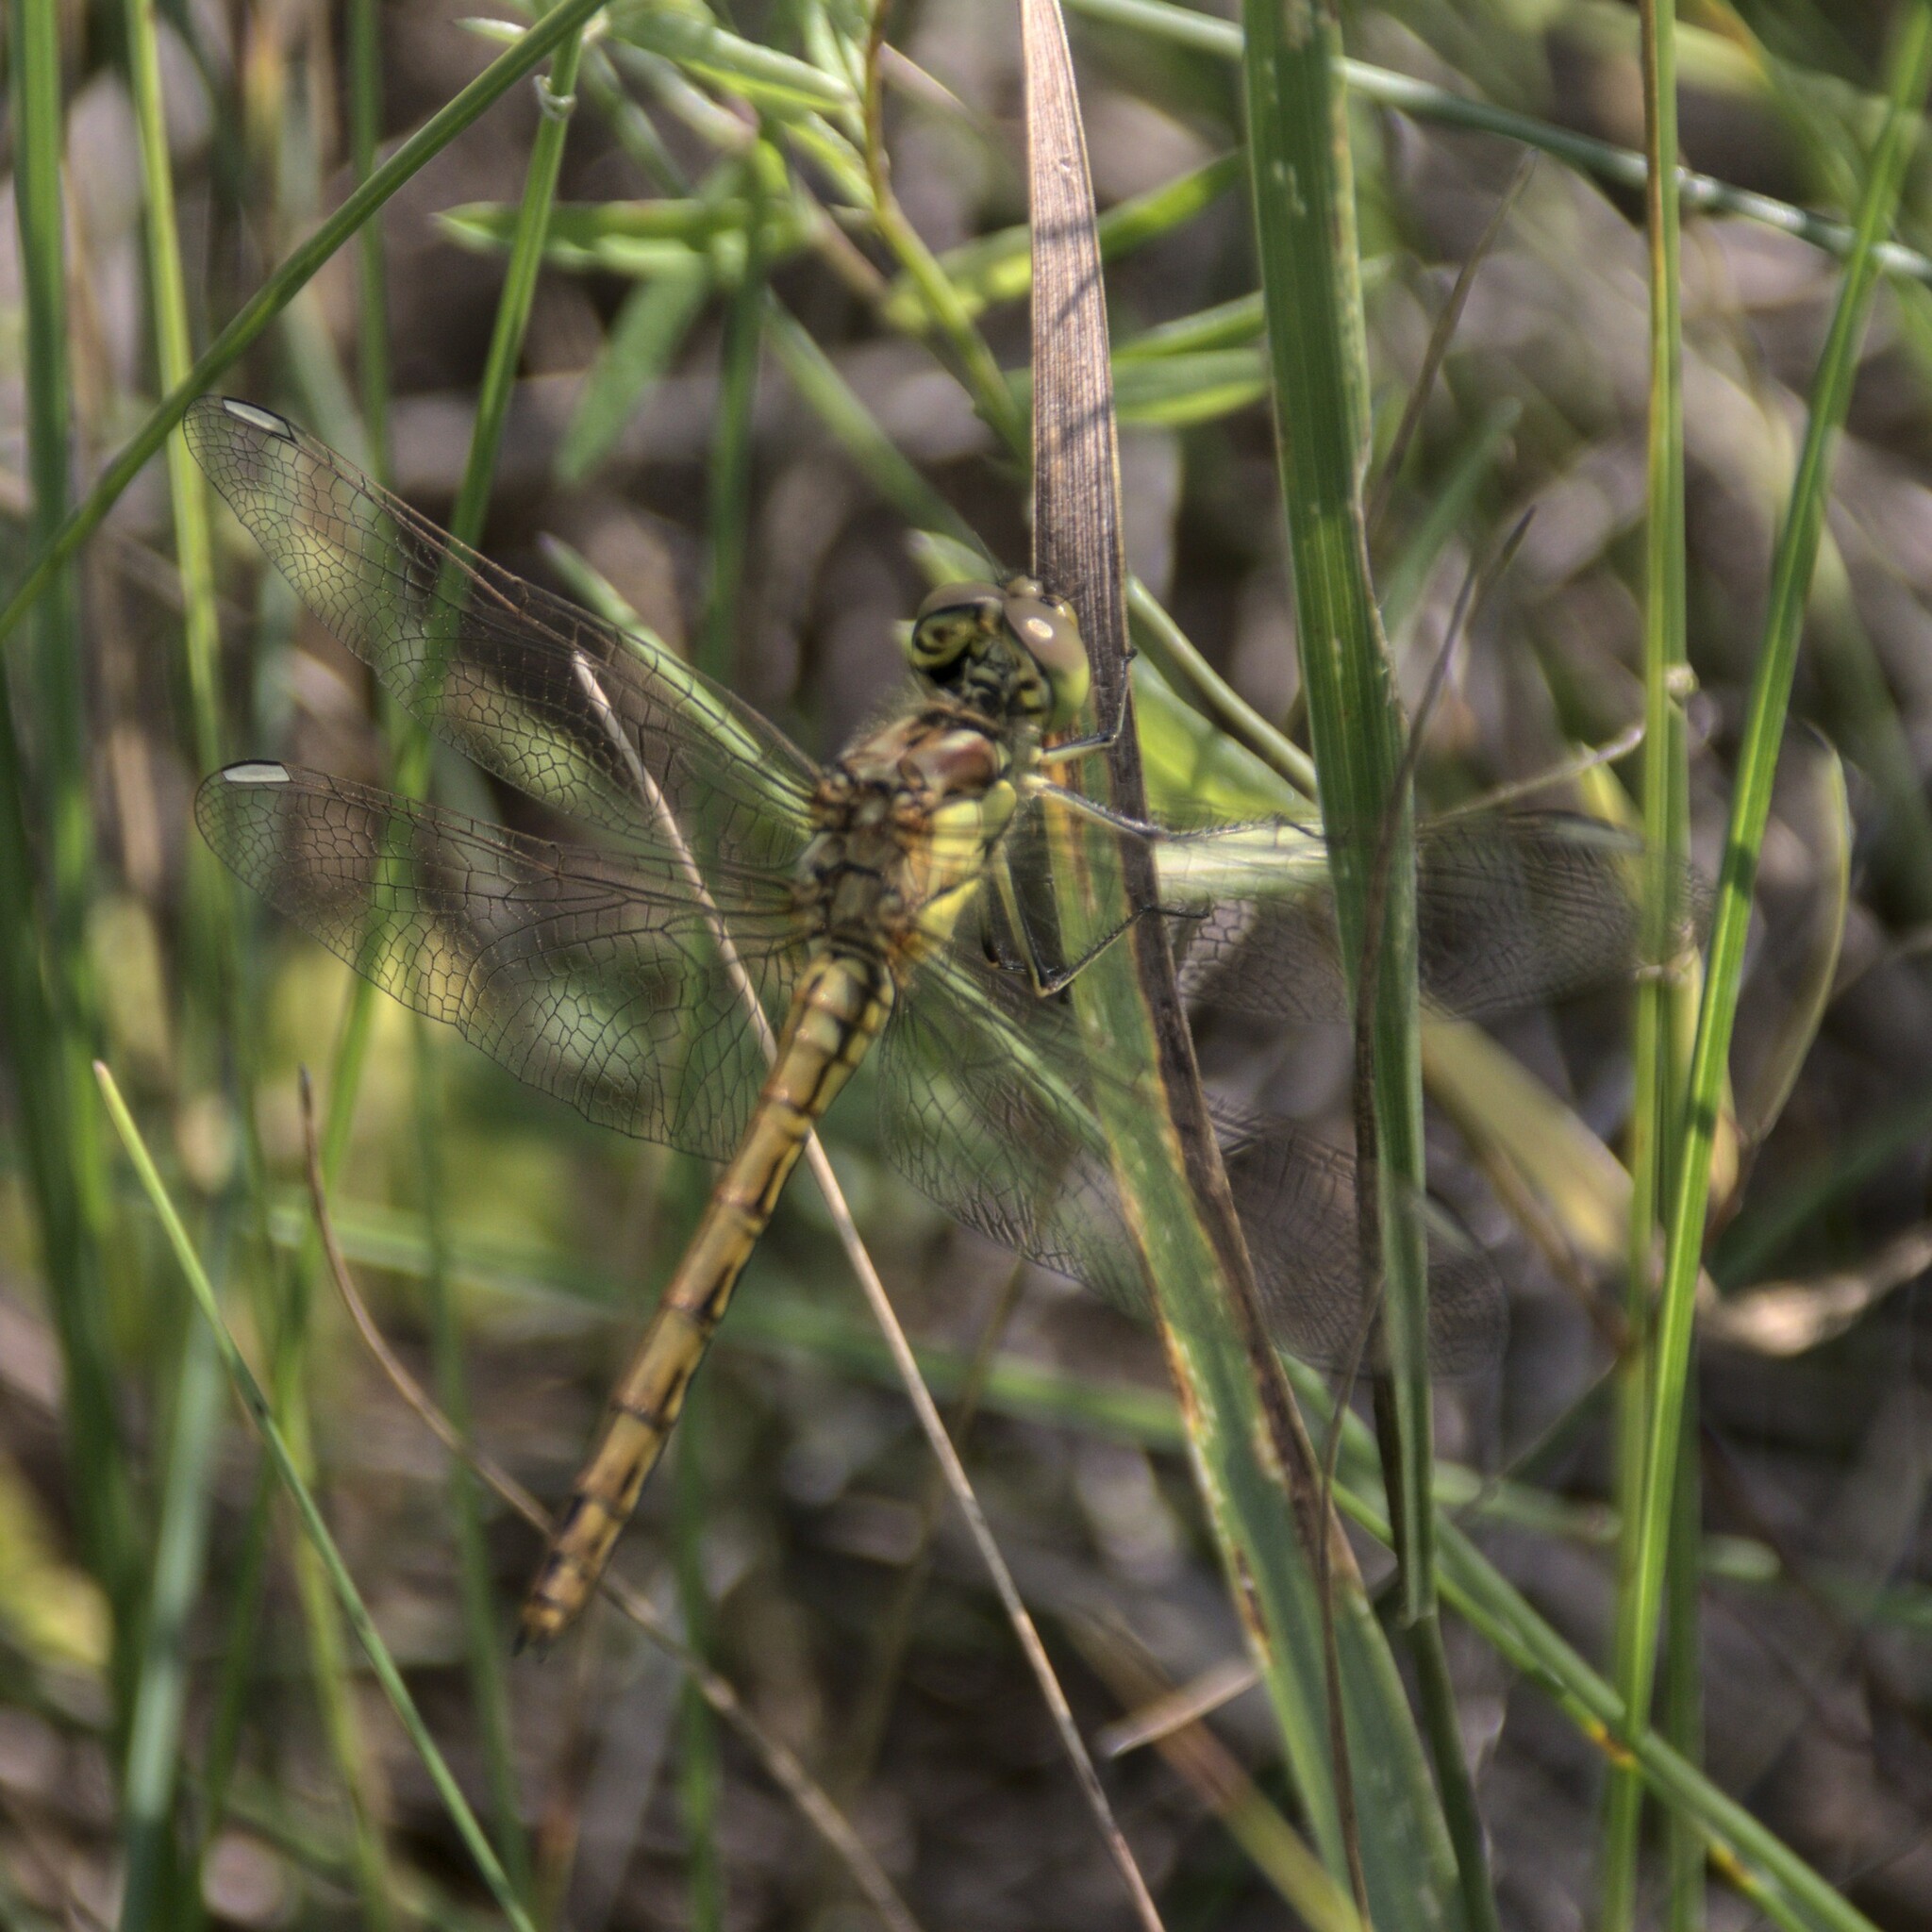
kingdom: Animalia
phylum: Arthropoda
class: Insecta
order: Odonata
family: Libellulidae
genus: Sympetrum
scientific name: Sympetrum vulgatum
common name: Vagrant darter
